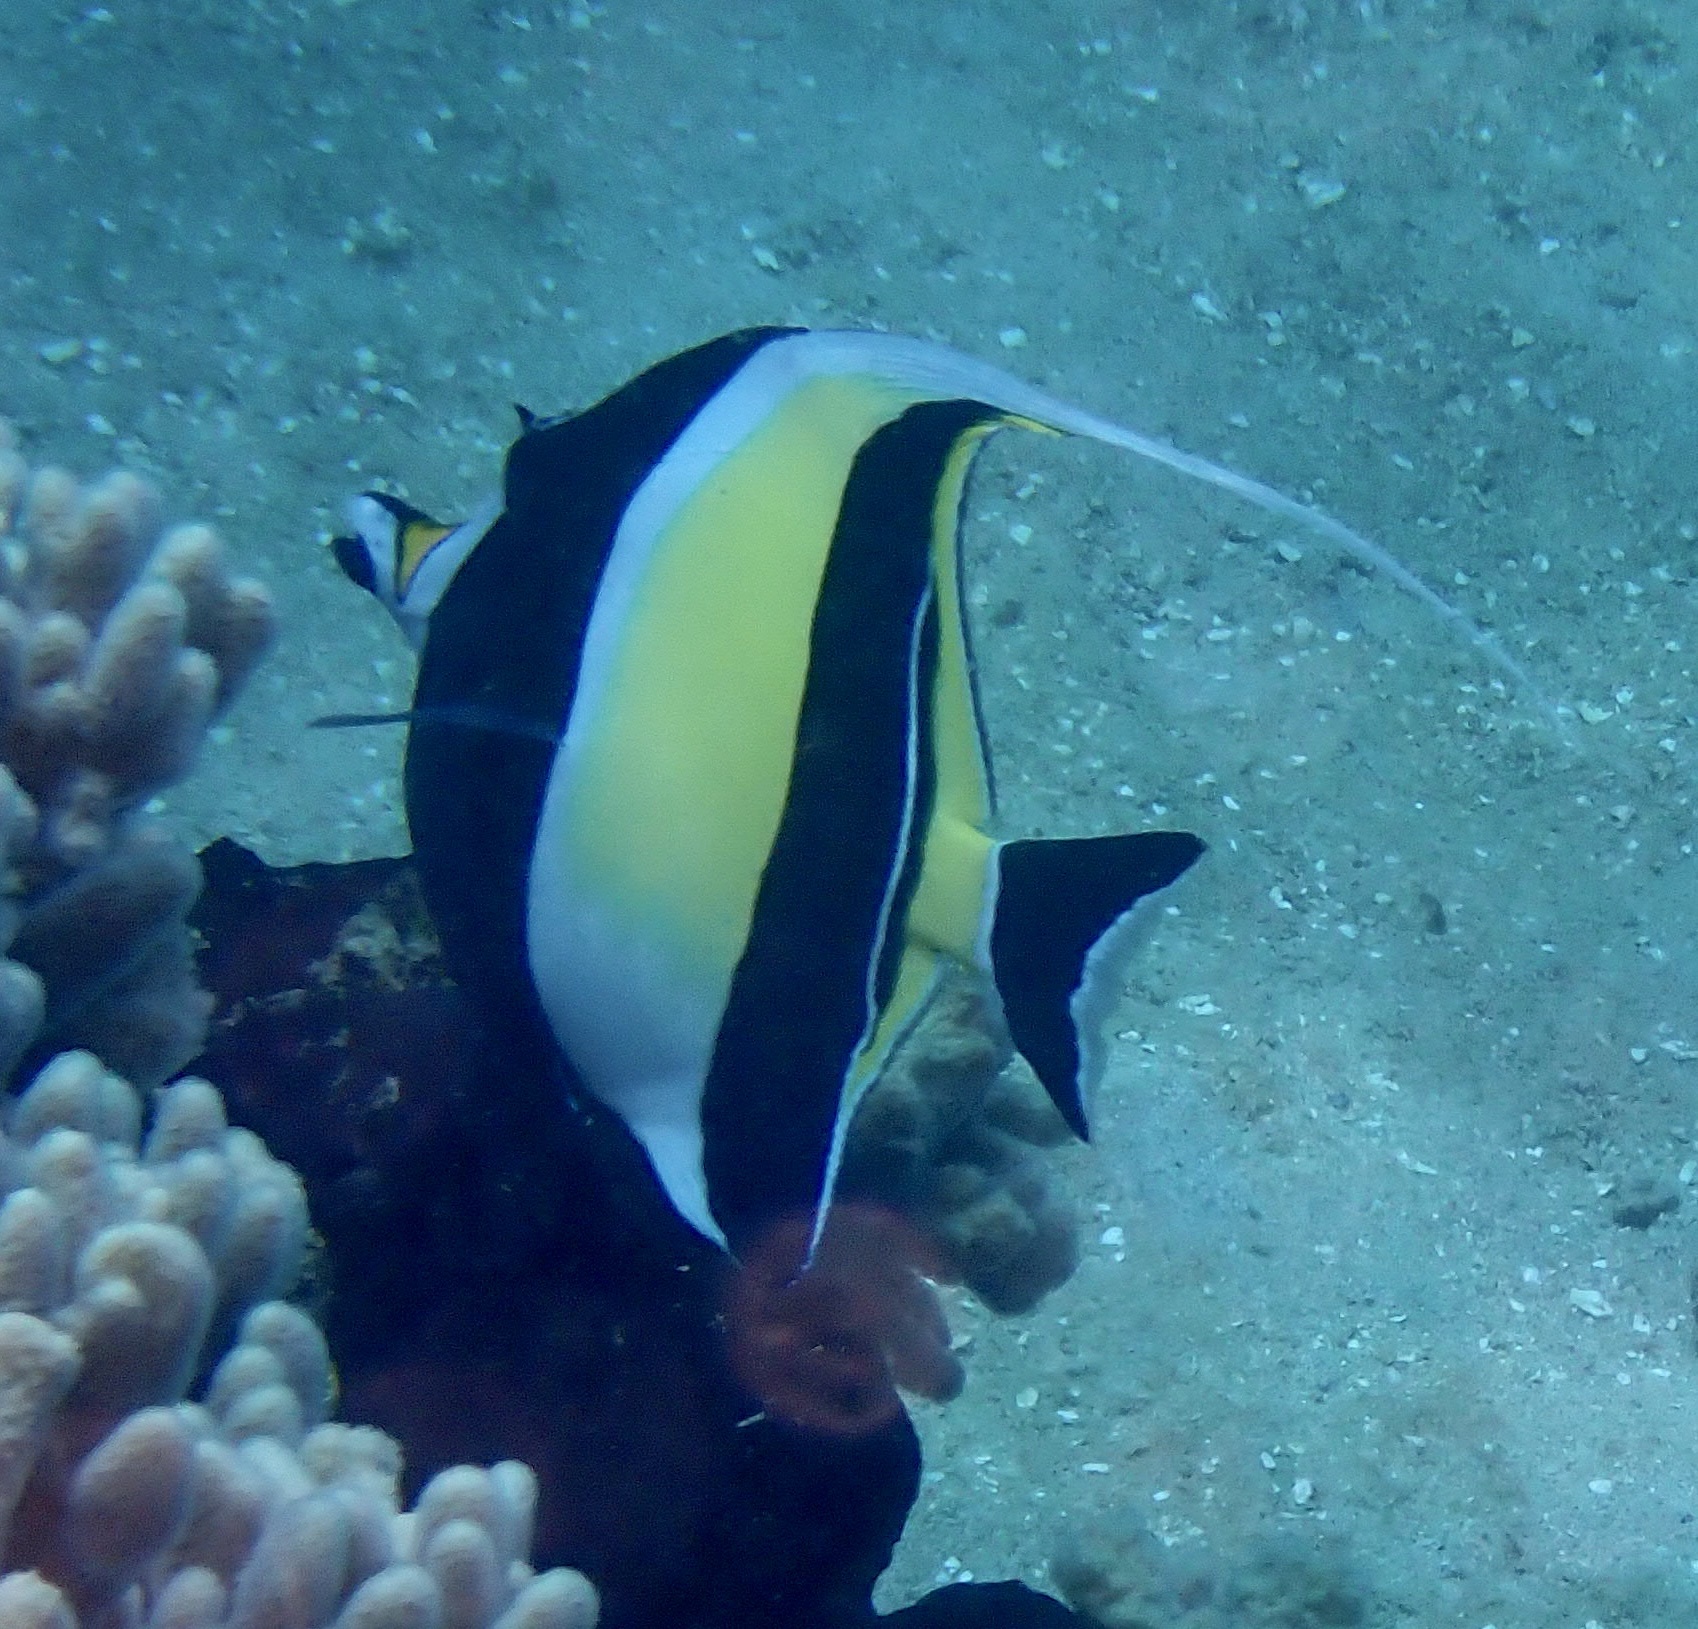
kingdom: Animalia
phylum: Chordata
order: Perciformes
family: Zanclidae
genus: Zanclus
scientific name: Zanclus cornutus
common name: Moorish idol
